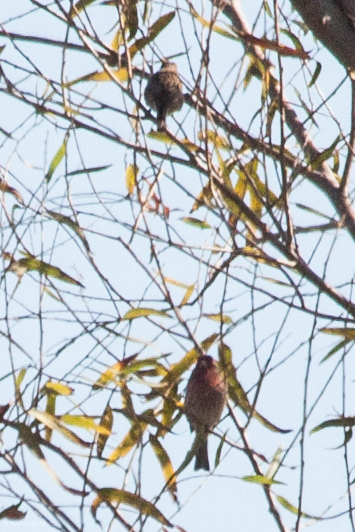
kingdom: Animalia
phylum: Chordata
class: Aves
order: Passeriformes
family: Fringillidae
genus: Haemorhous
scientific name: Haemorhous mexicanus
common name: House finch
